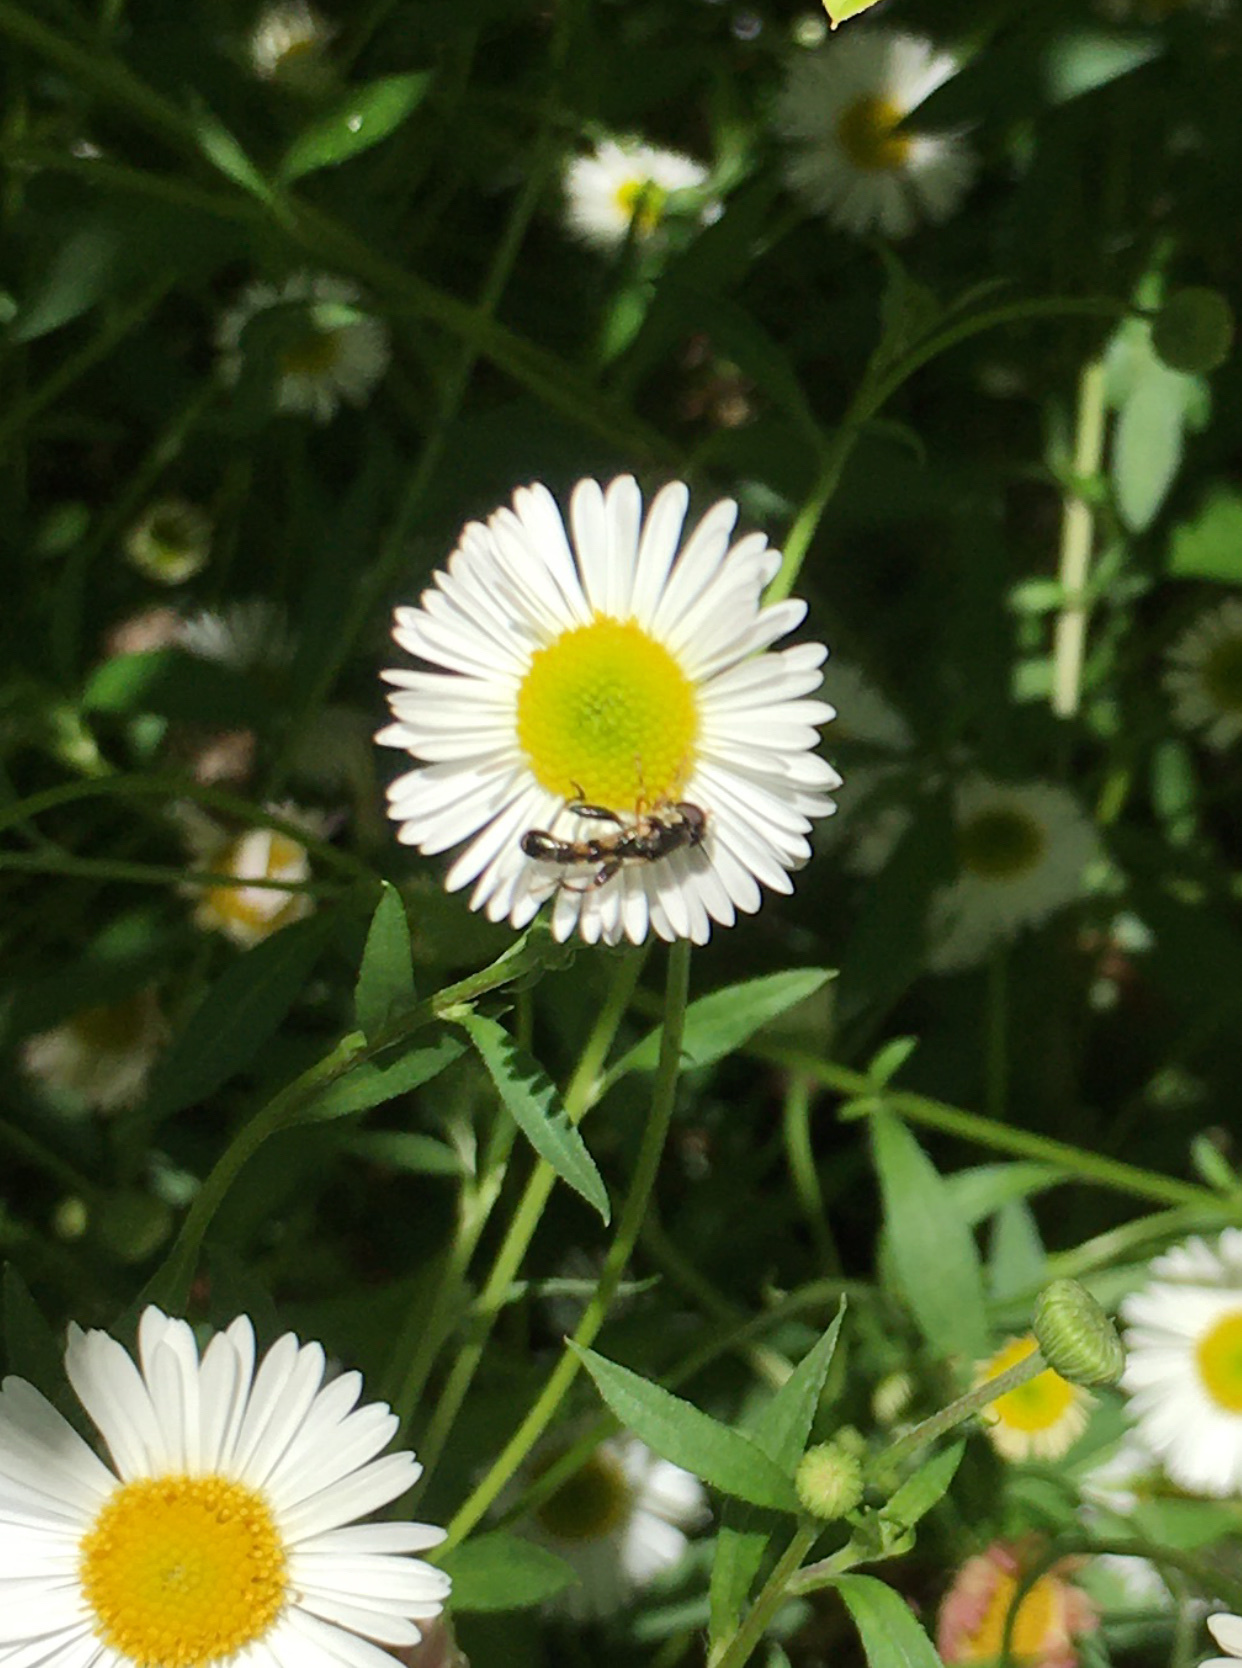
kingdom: Animalia
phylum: Arthropoda
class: Insecta
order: Diptera
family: Syrphidae
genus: Syritta
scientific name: Syritta pipiens
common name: Hover fly
